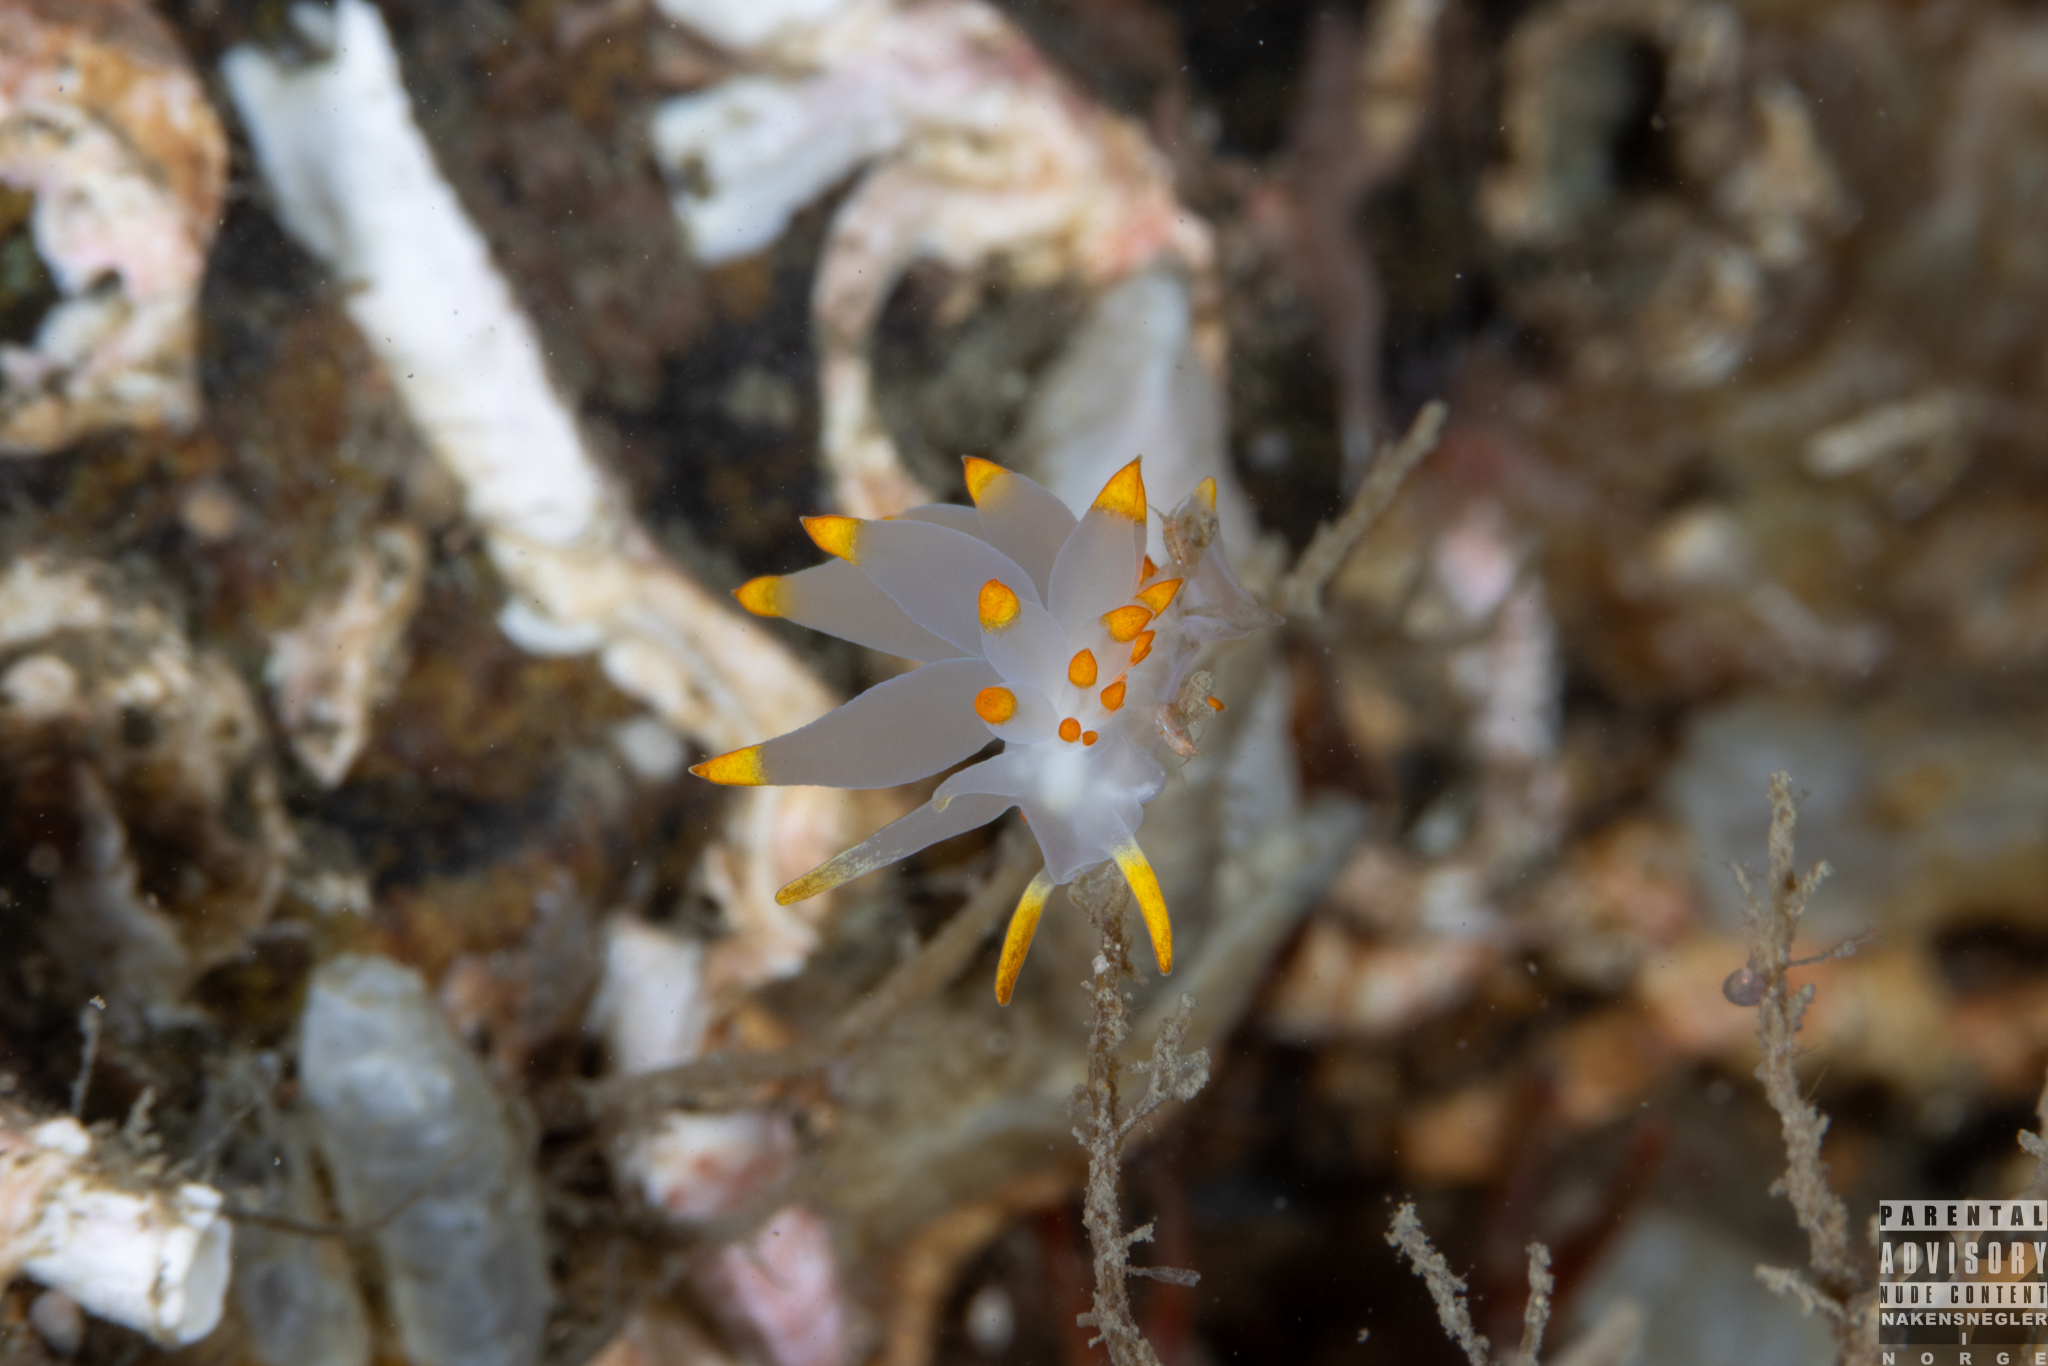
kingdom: Animalia
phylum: Mollusca
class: Gastropoda
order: Nudibranchia
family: Eubranchidae
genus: Amphorina
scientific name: Amphorina farrani
